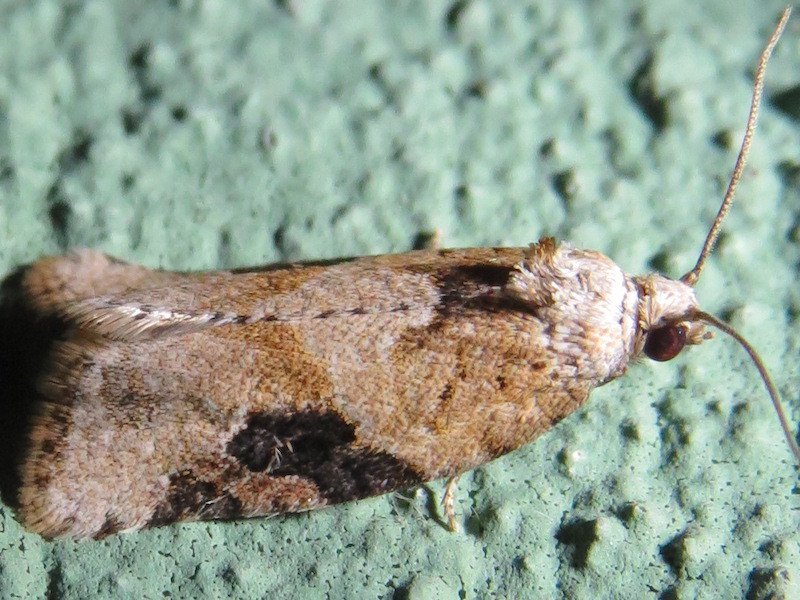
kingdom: Animalia
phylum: Arthropoda
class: Insecta
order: Lepidoptera
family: Tortricidae
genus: Argyrotaenia
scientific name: Argyrotaenia mariana
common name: Gray-banded leafroller moth
